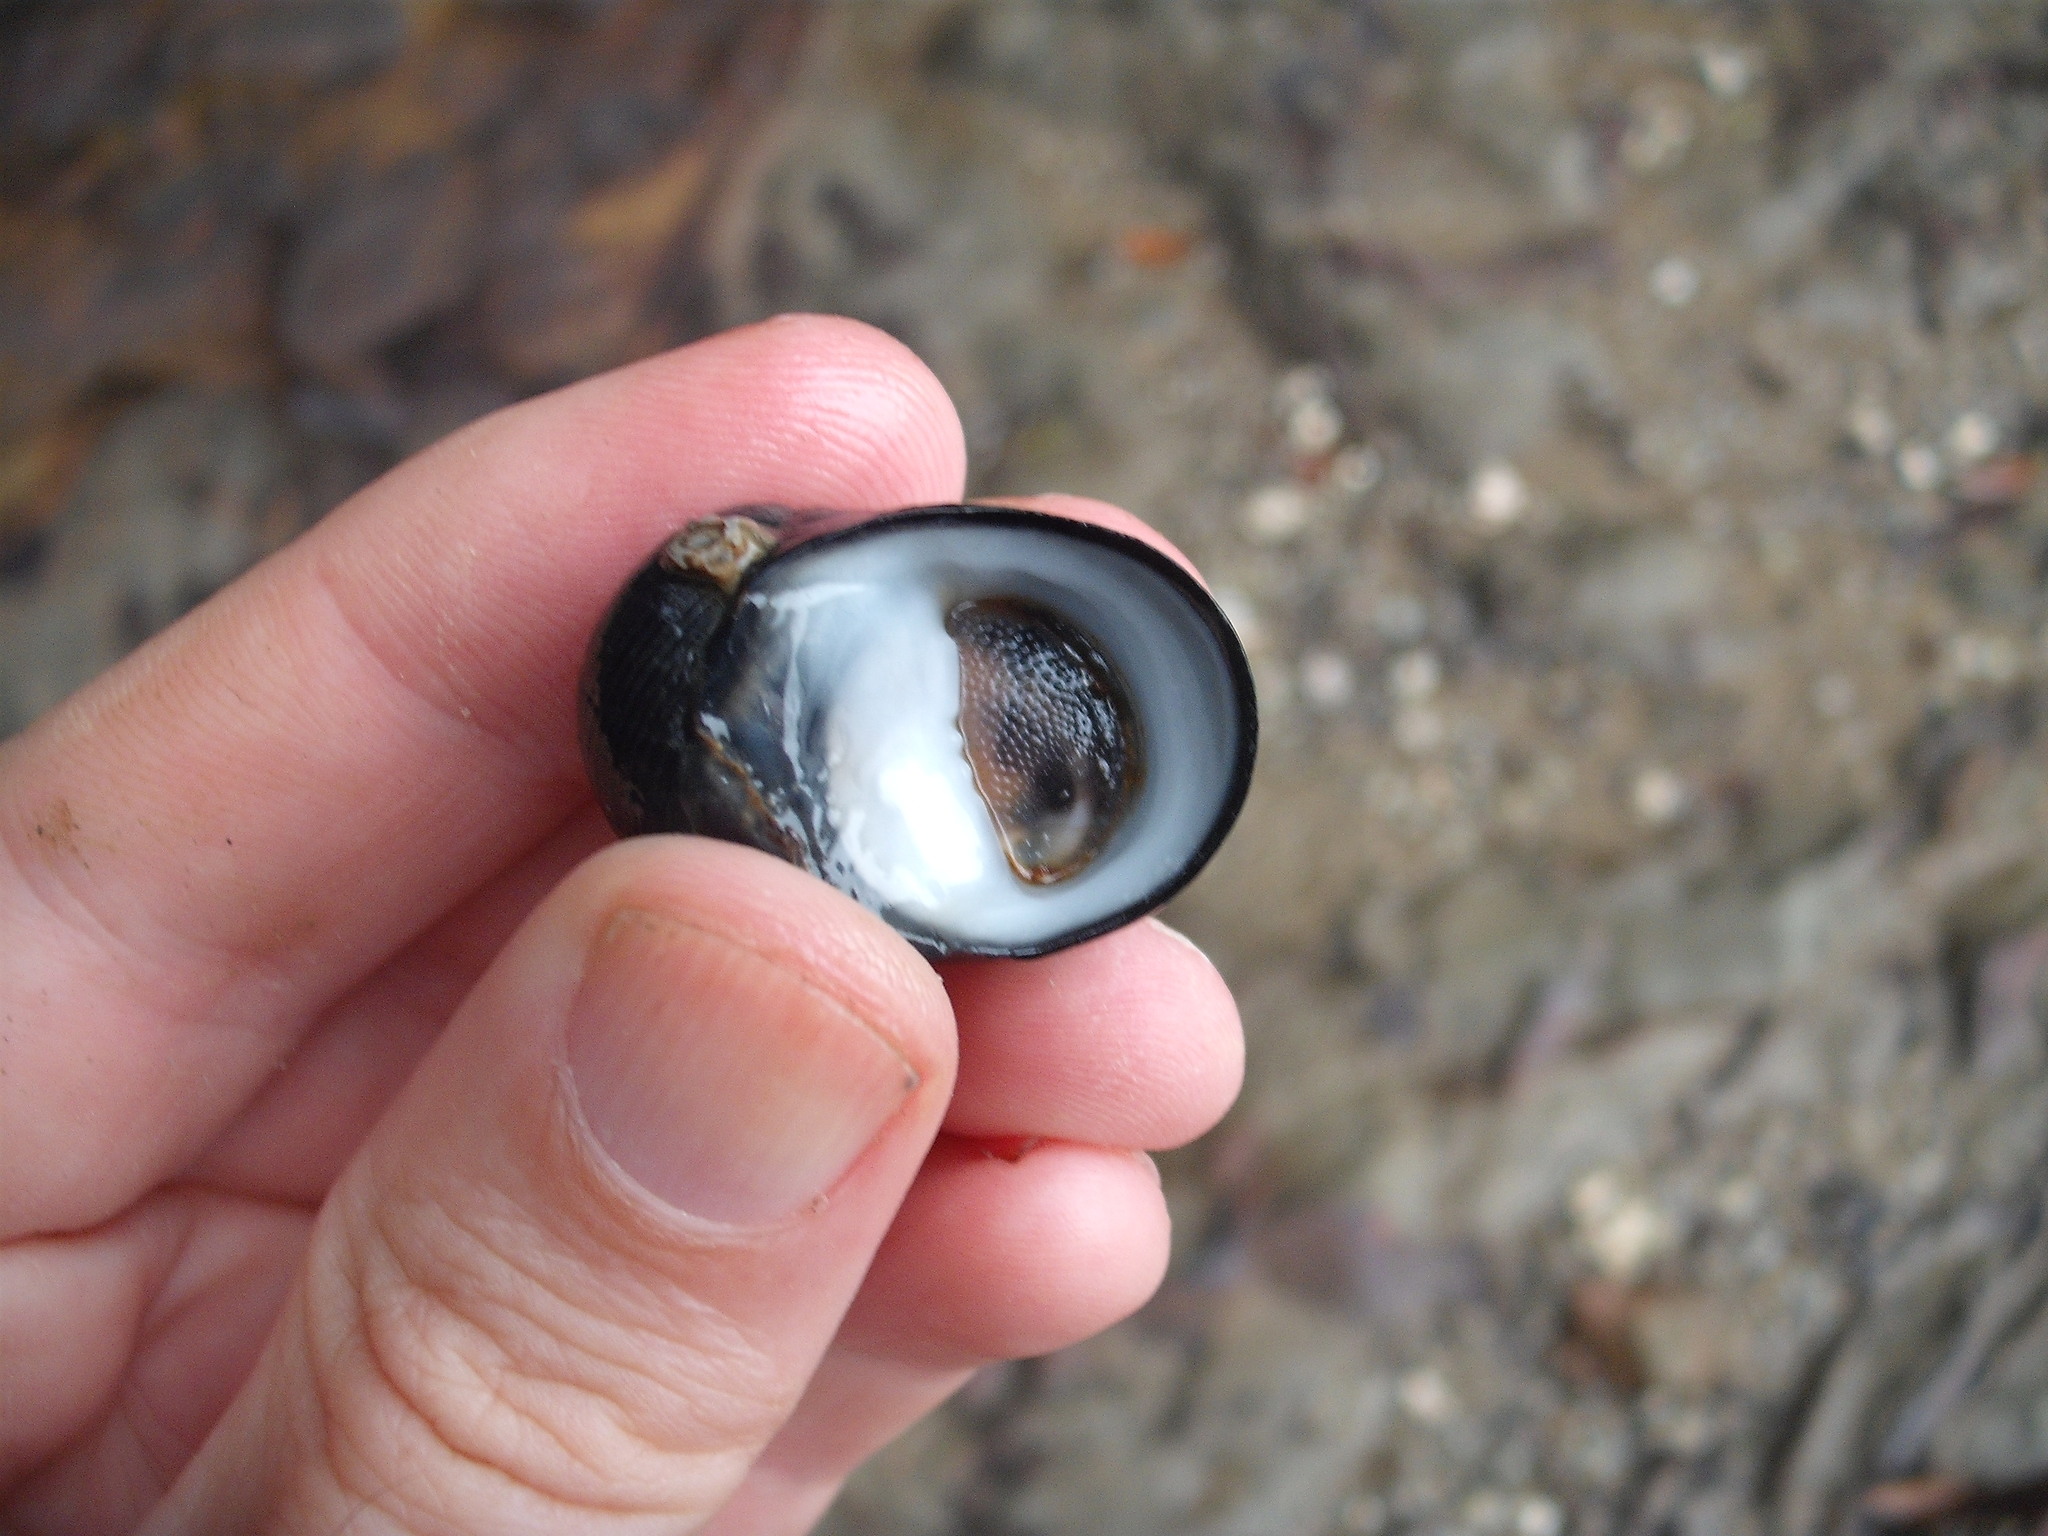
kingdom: Animalia
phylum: Mollusca
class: Gastropoda
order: Cycloneritida
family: Neritidae
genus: Nerita
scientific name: Nerita melanotragus
